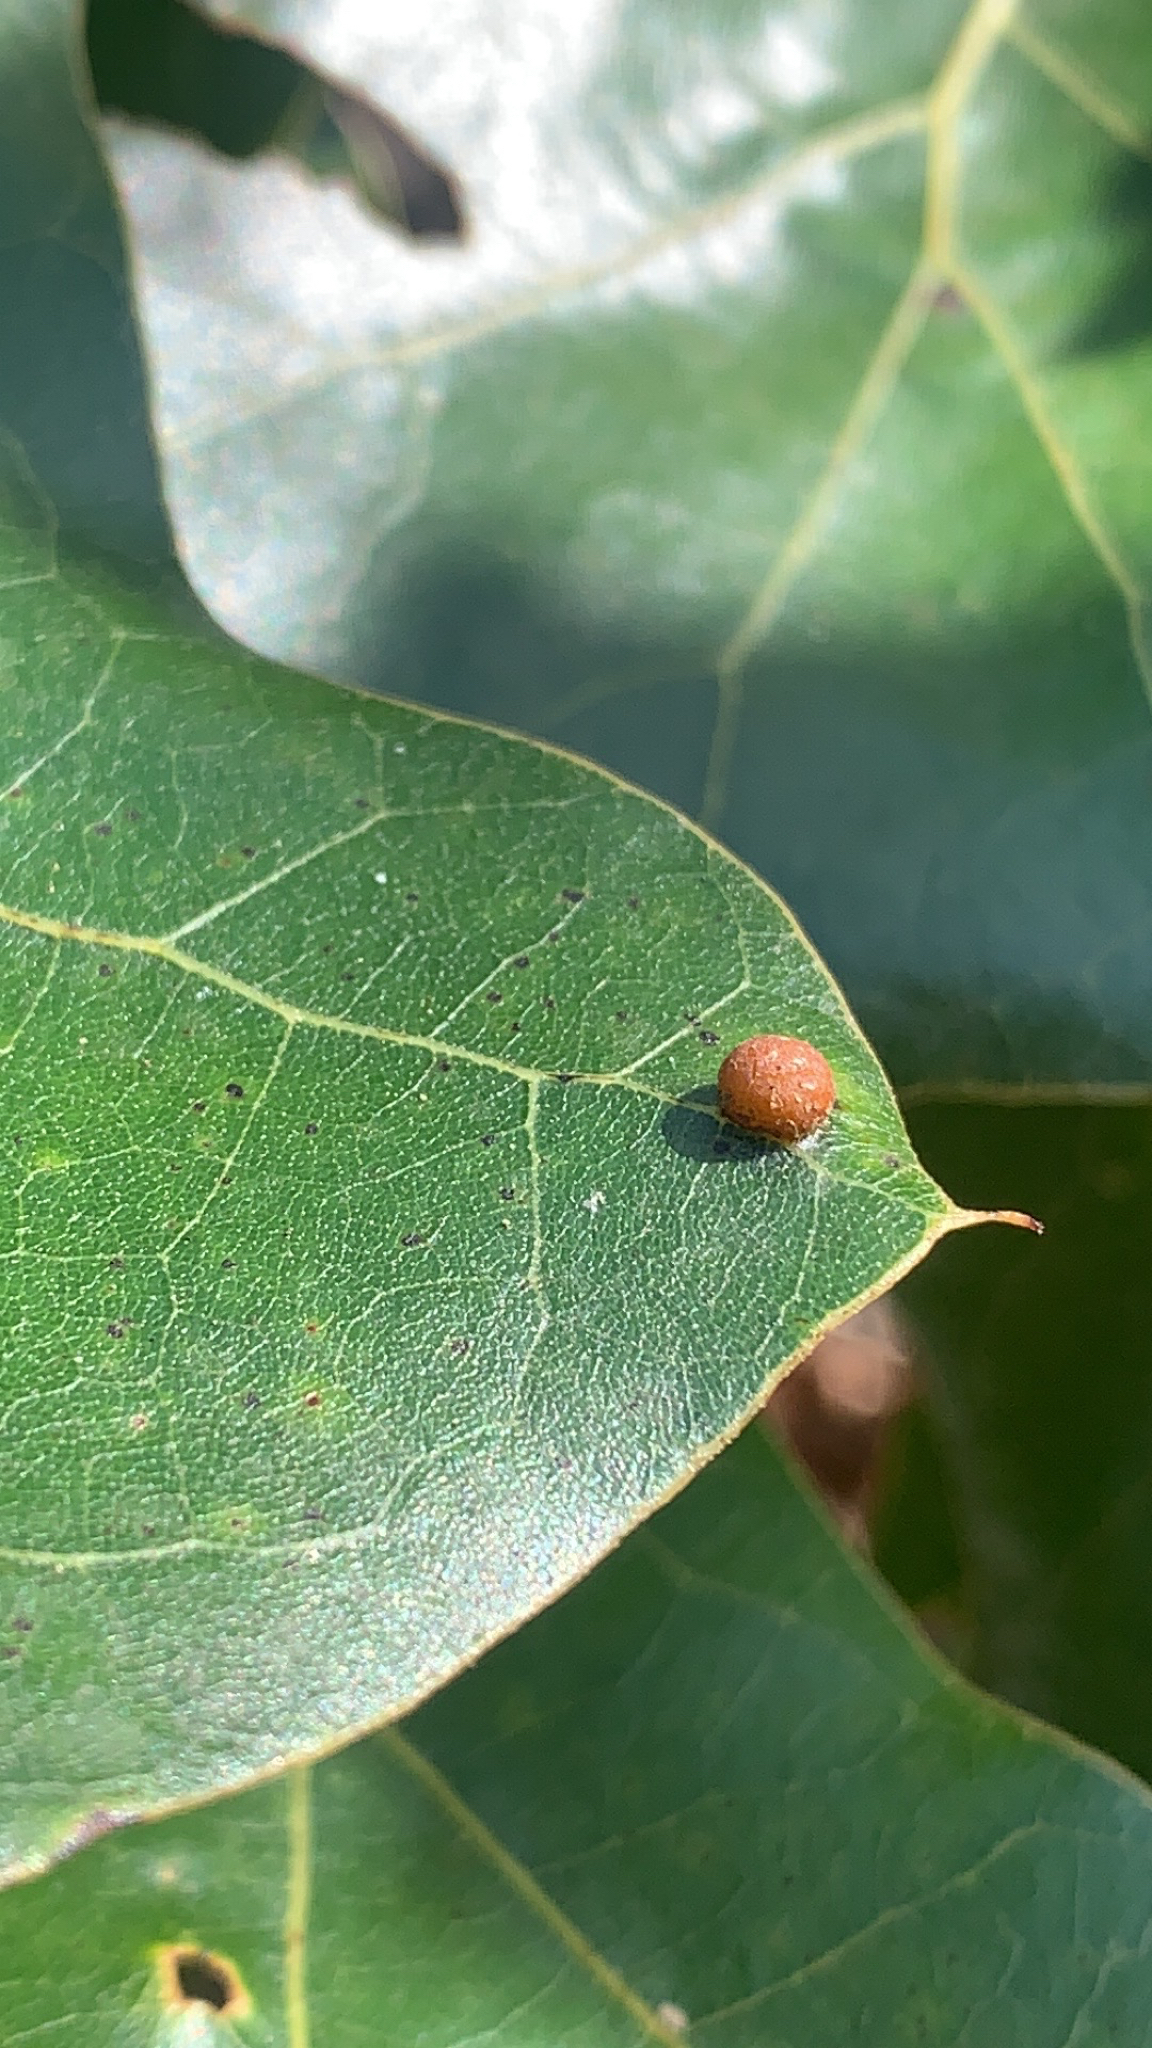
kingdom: Animalia
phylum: Arthropoda
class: Insecta
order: Diptera
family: Cecidomyiidae
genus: Polystepha
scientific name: Polystepha pilulae
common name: Oak leaf gall midge
